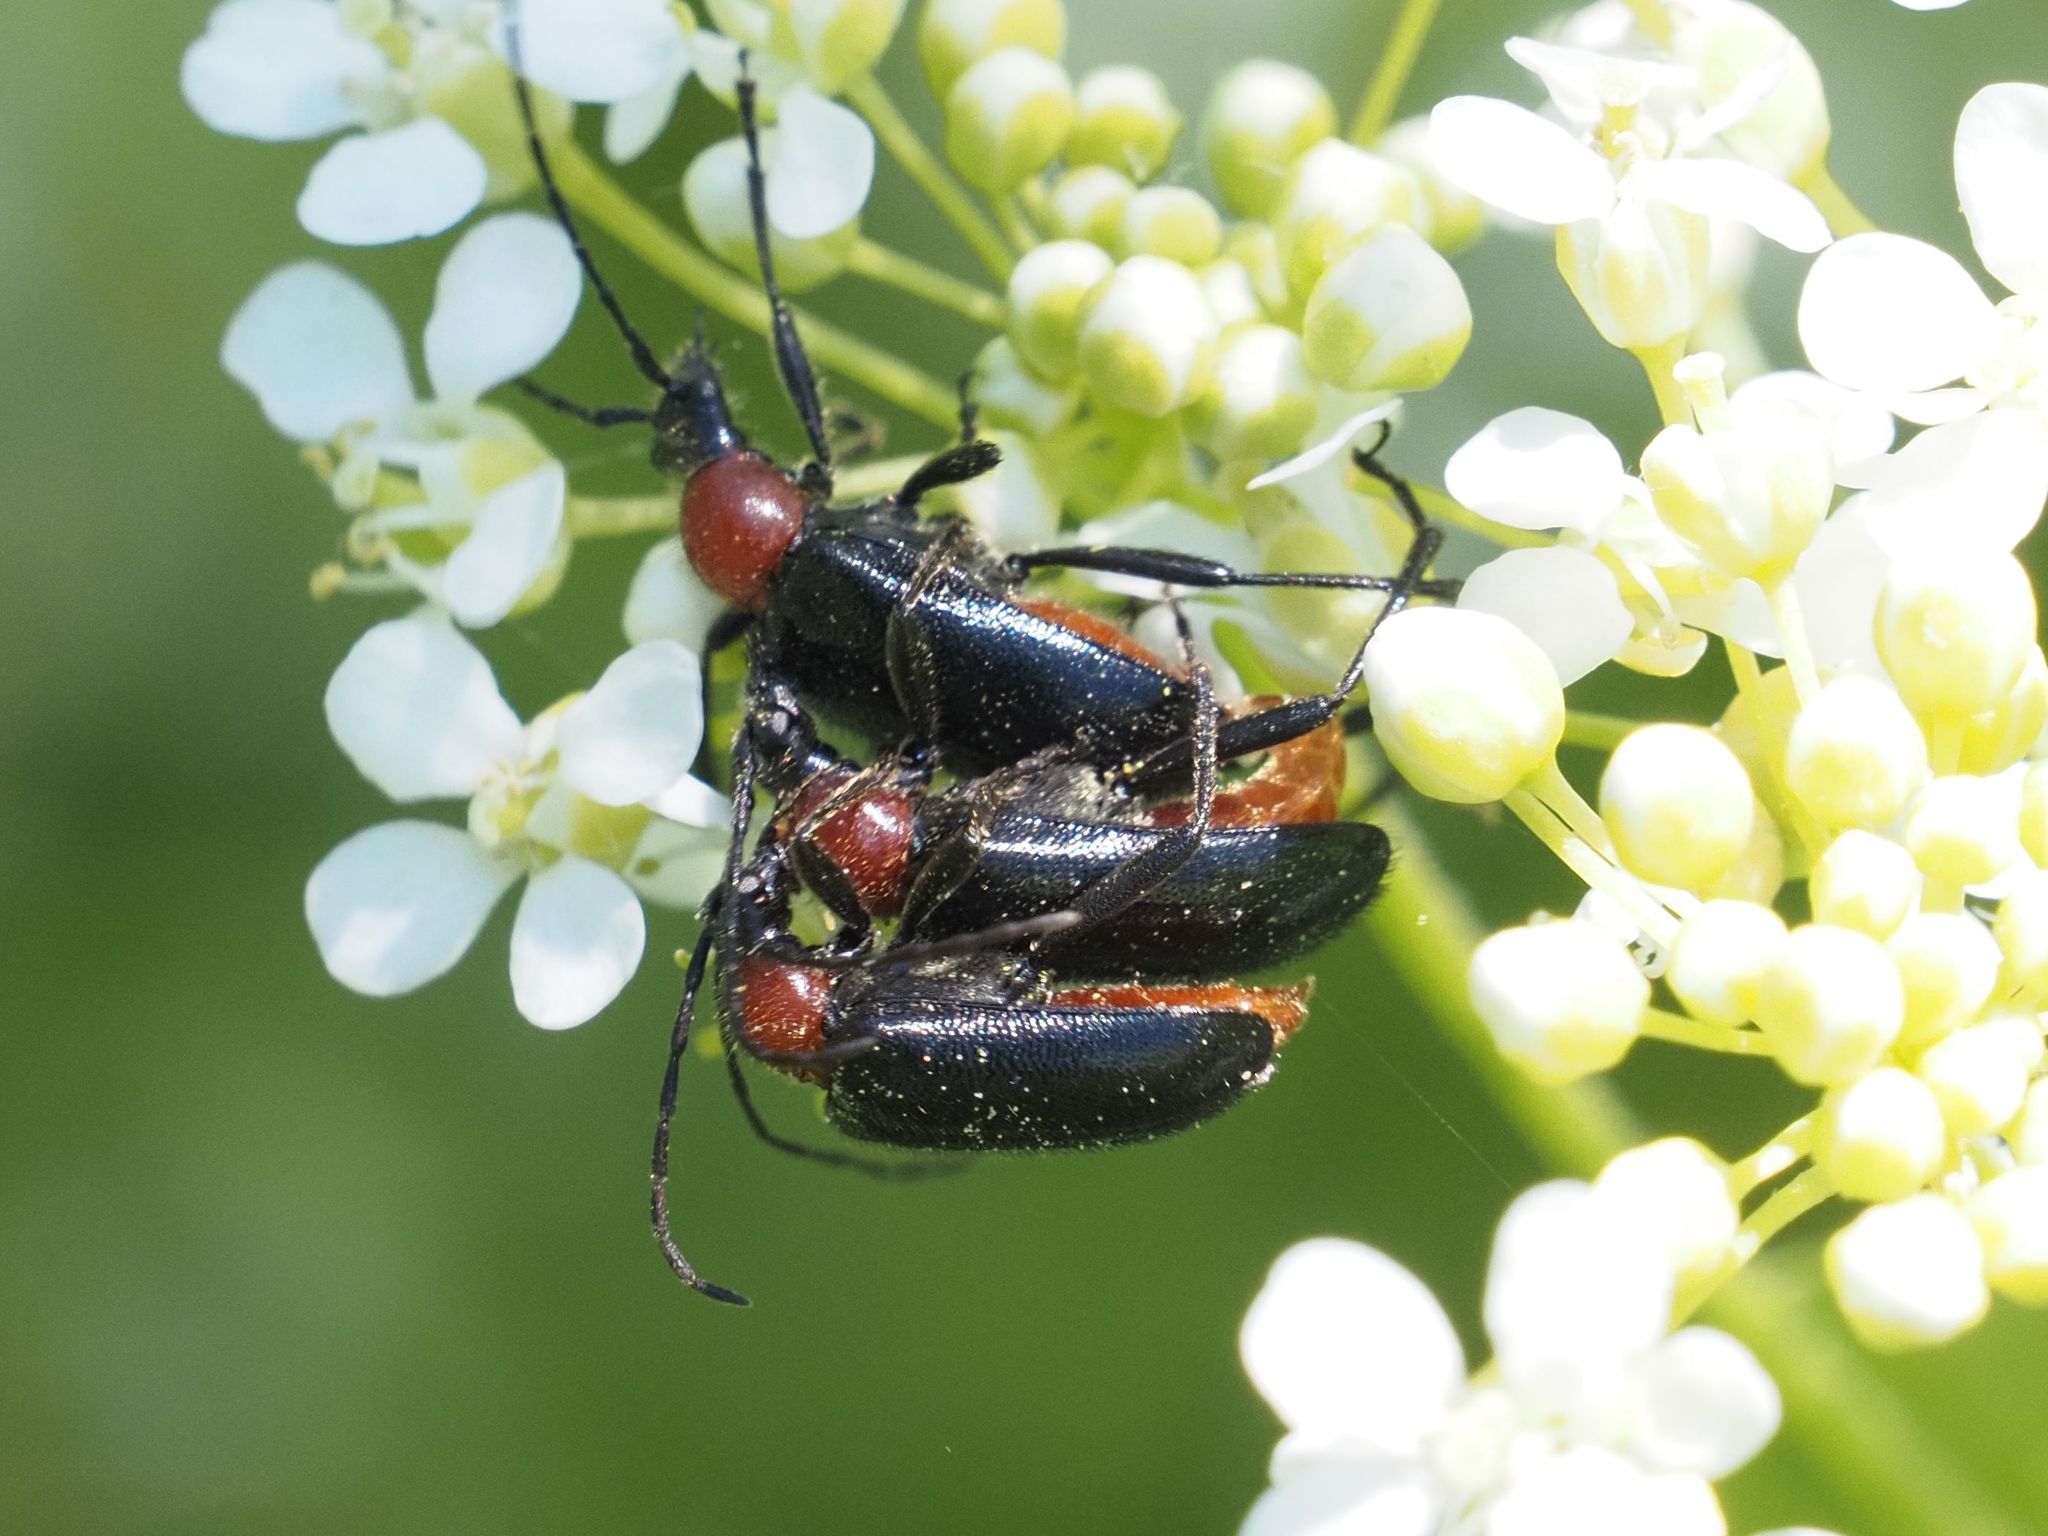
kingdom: Animalia
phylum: Arthropoda
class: Insecta
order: Coleoptera
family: Cerambycidae
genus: Dinoptera
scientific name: Dinoptera collaris
